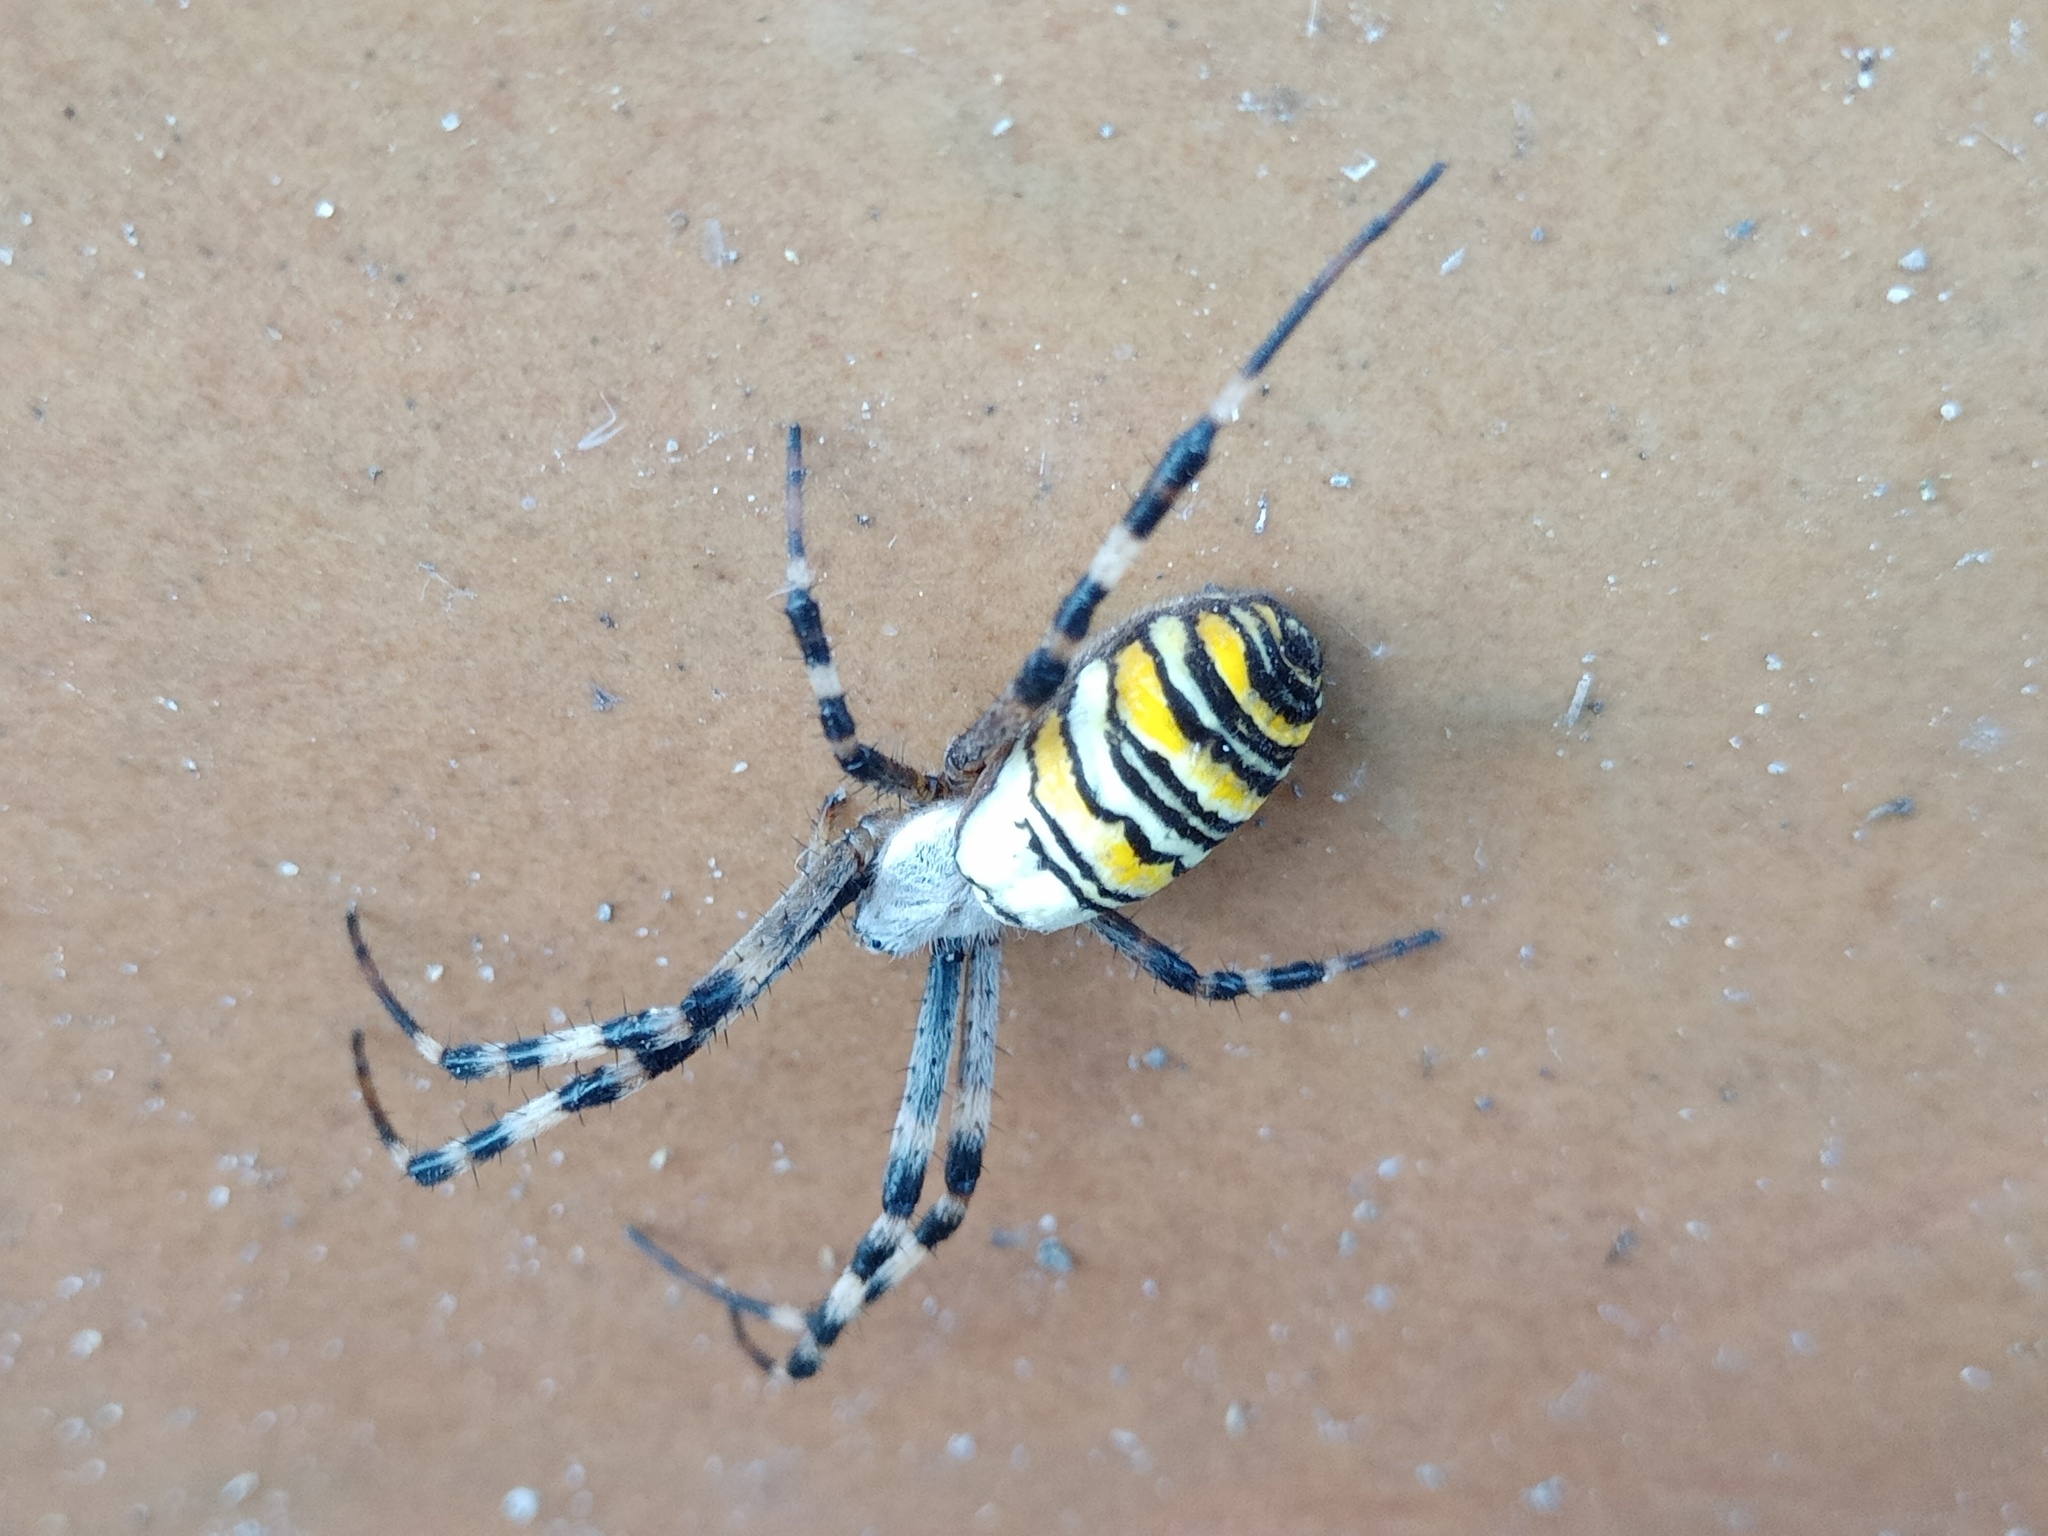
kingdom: Animalia
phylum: Arthropoda
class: Arachnida
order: Araneae
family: Araneidae
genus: Argiope
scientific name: Argiope bruennichi
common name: Wasp spider
